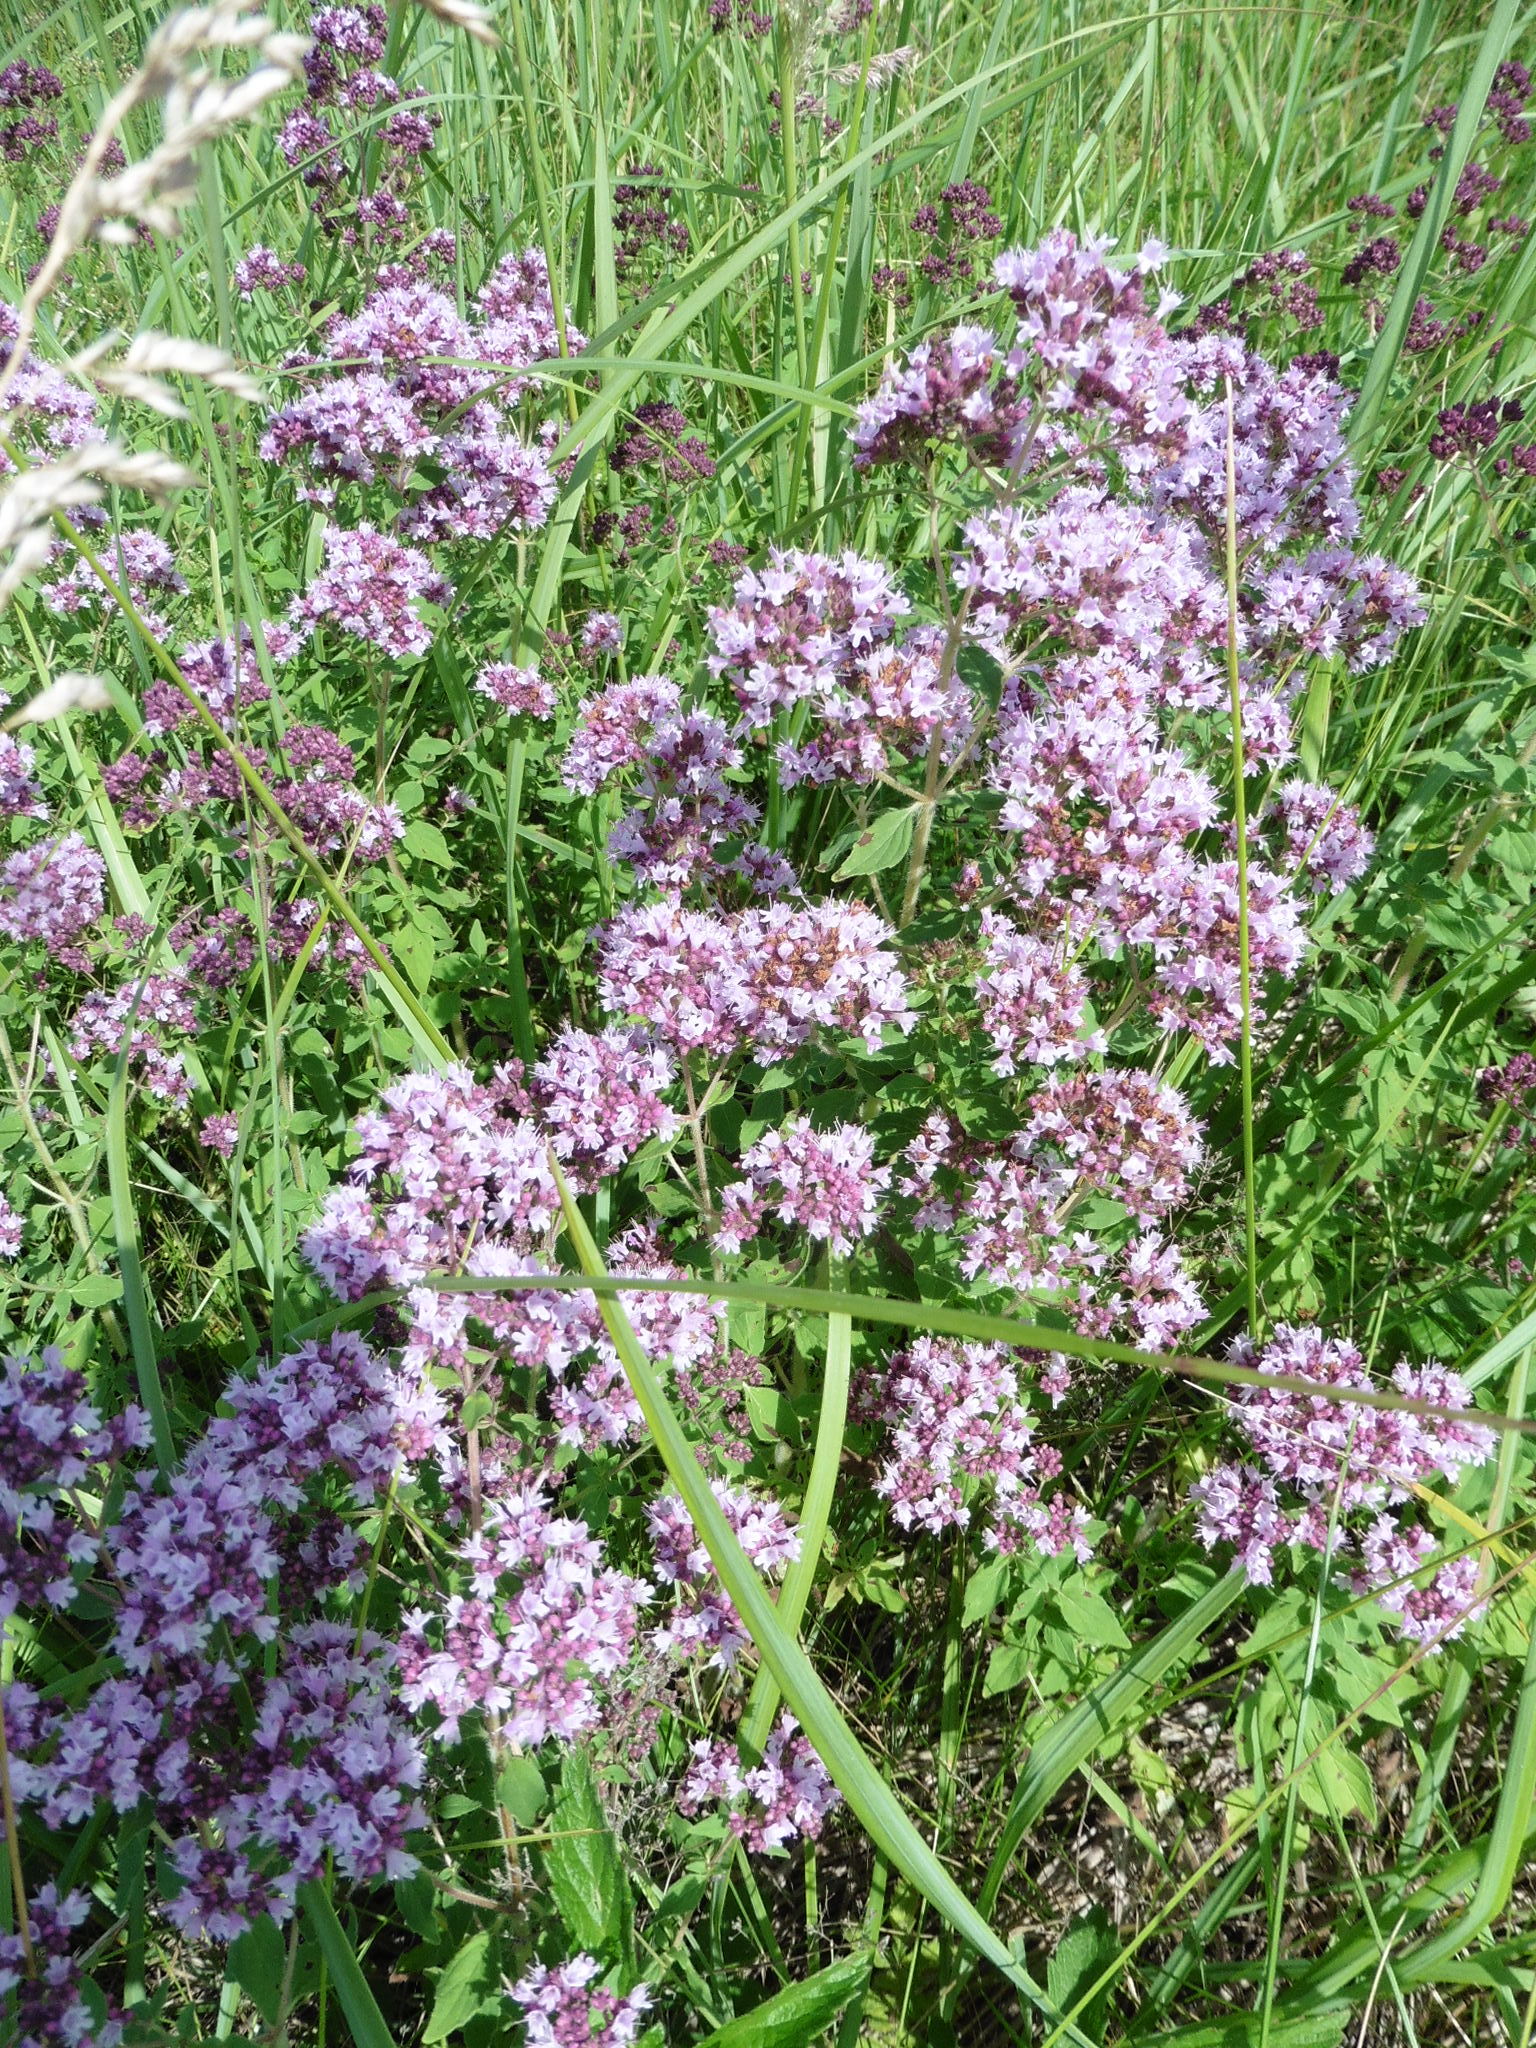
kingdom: Plantae
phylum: Tracheophyta
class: Magnoliopsida
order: Lamiales
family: Lamiaceae
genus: Origanum
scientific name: Origanum vulgare
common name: Wild marjoram
